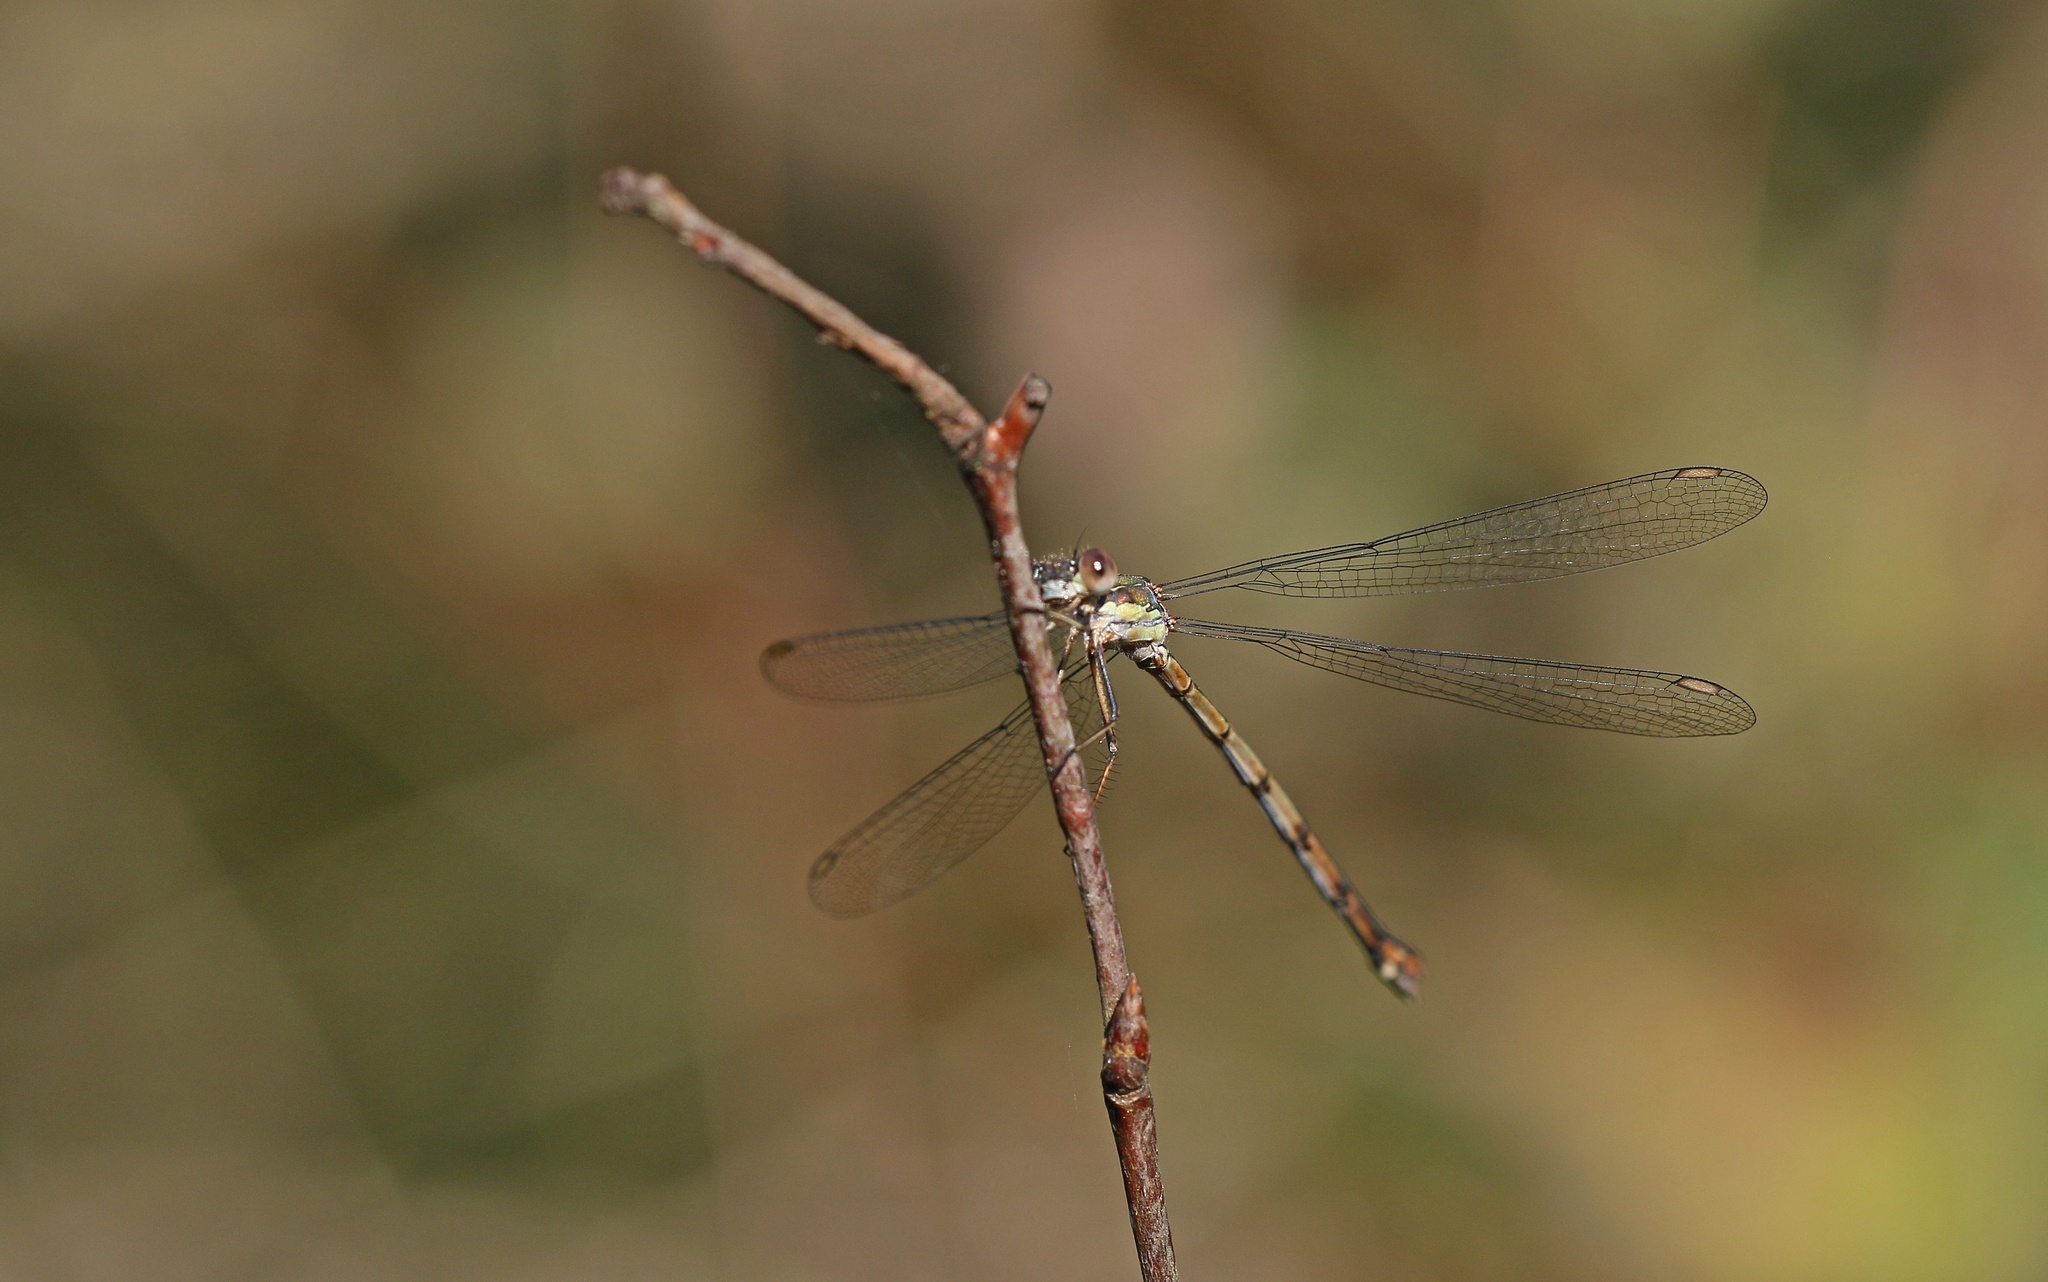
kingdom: Animalia
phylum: Arthropoda
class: Insecta
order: Odonata
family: Lestidae
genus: Chalcolestes
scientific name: Chalcolestes viridis
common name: Green emerald damselfly
